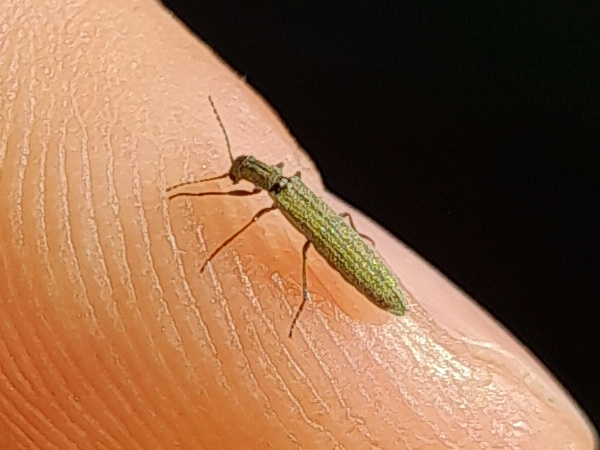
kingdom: Animalia
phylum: Arthropoda
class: Insecta
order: Coleoptera
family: Melyridae
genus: Dolichosoma
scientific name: Dolichosoma lineare
